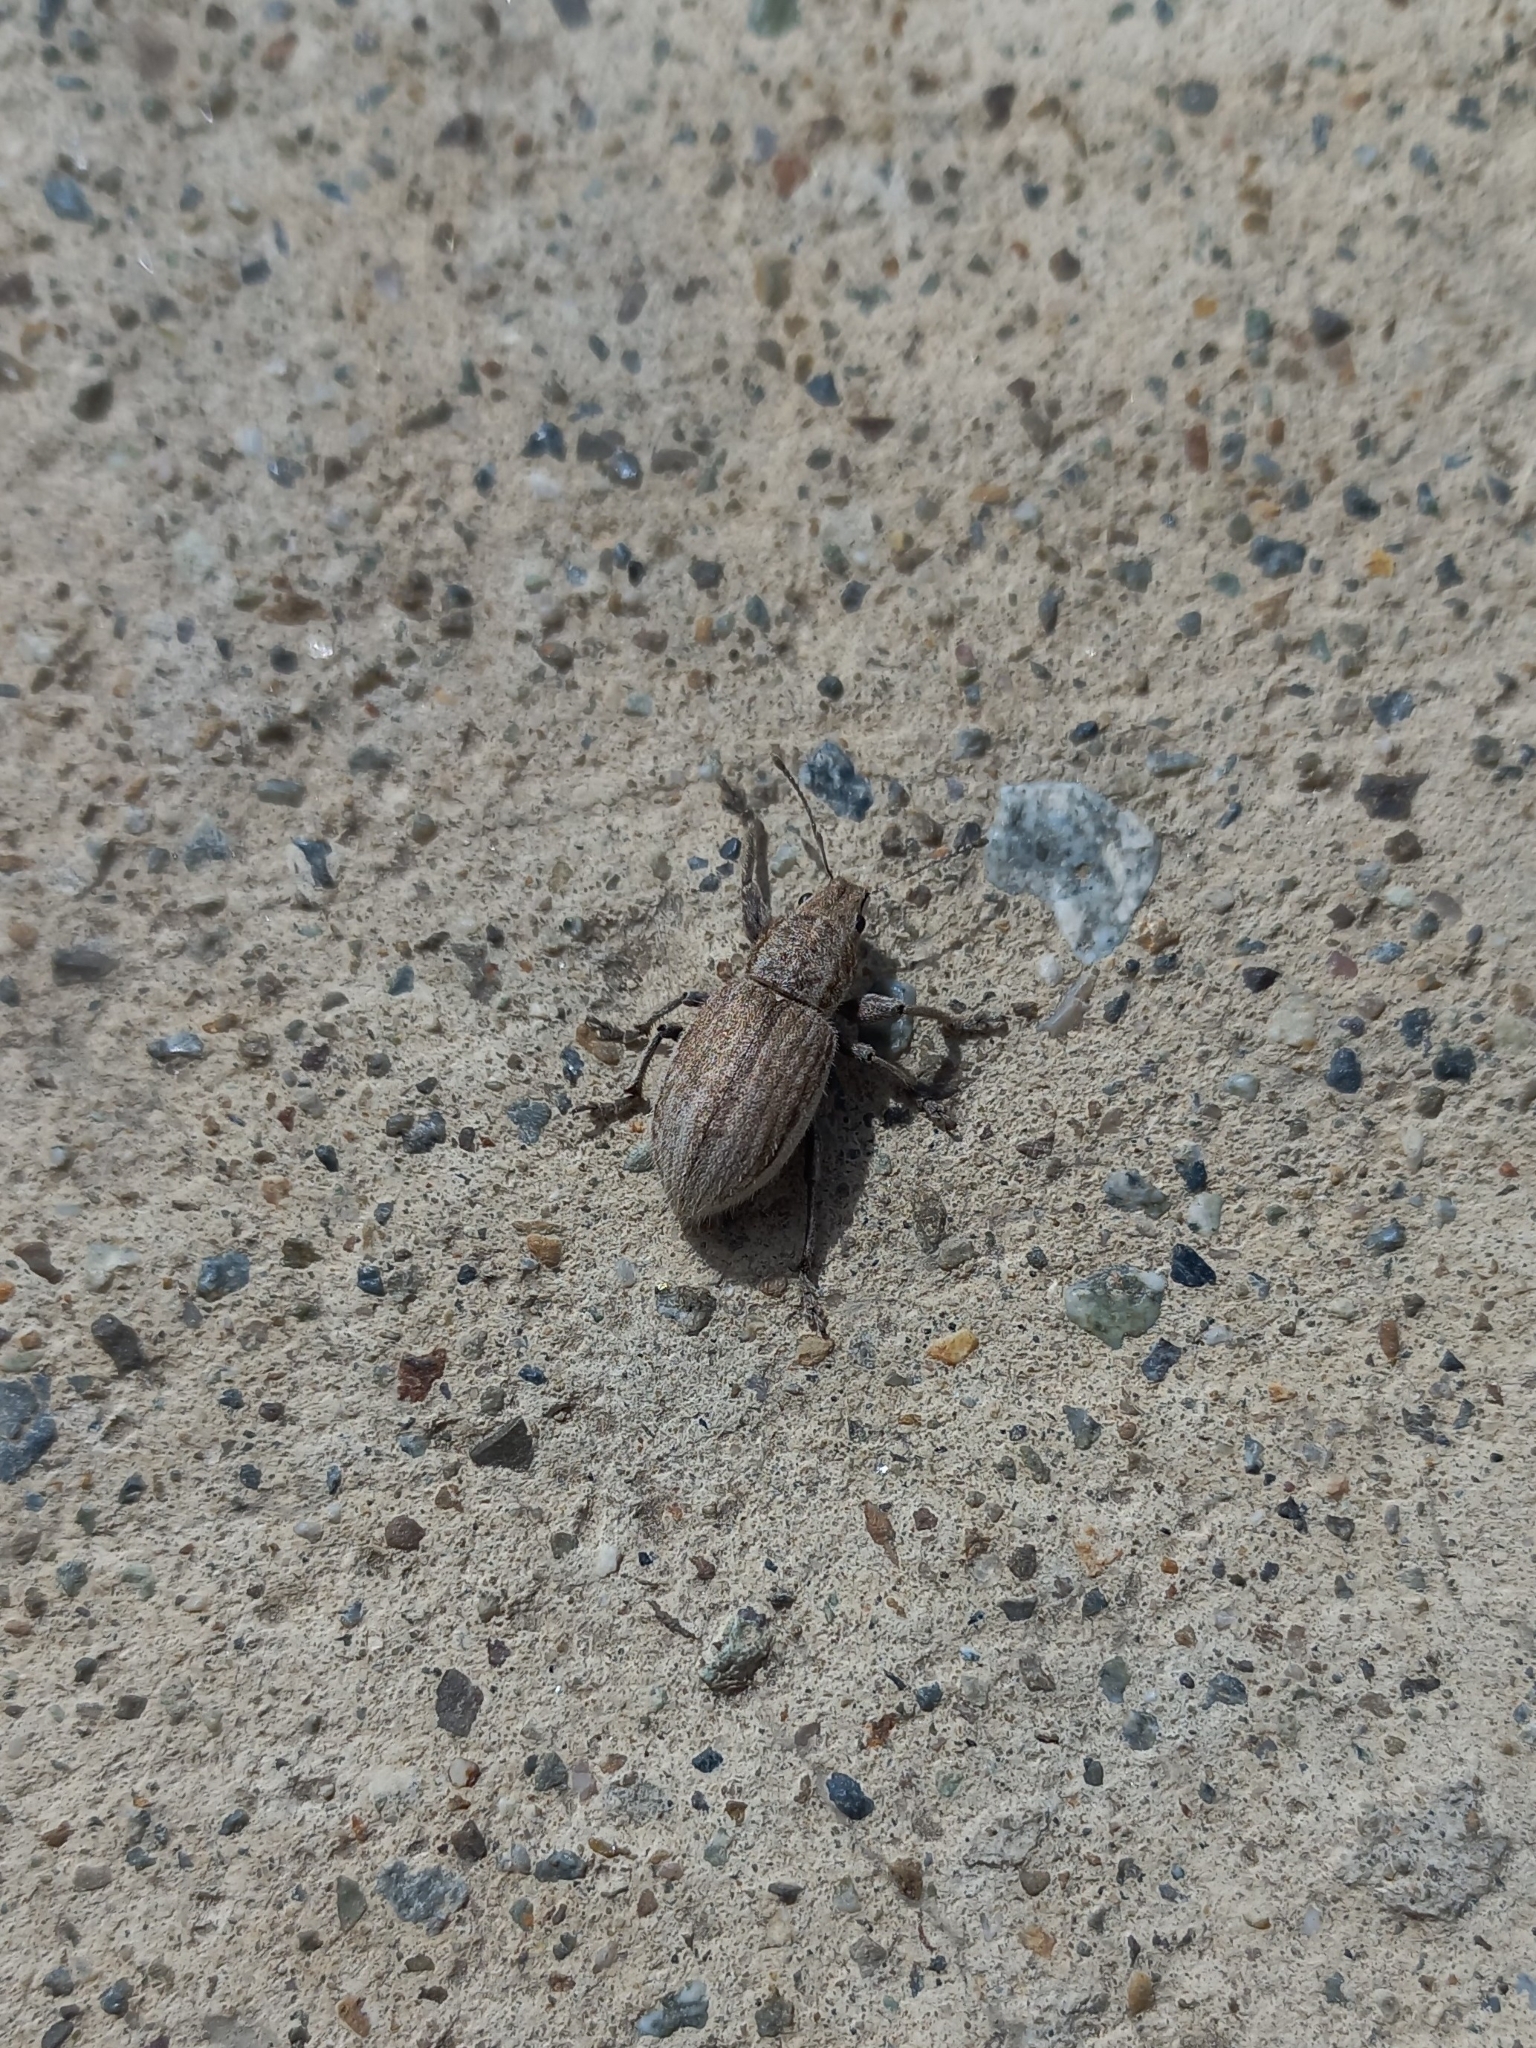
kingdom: Animalia
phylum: Arthropoda
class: Insecta
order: Coleoptera
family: Curculionidae
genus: Naupactus
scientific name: Naupactus leucoloma
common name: Whitefringed beetle
